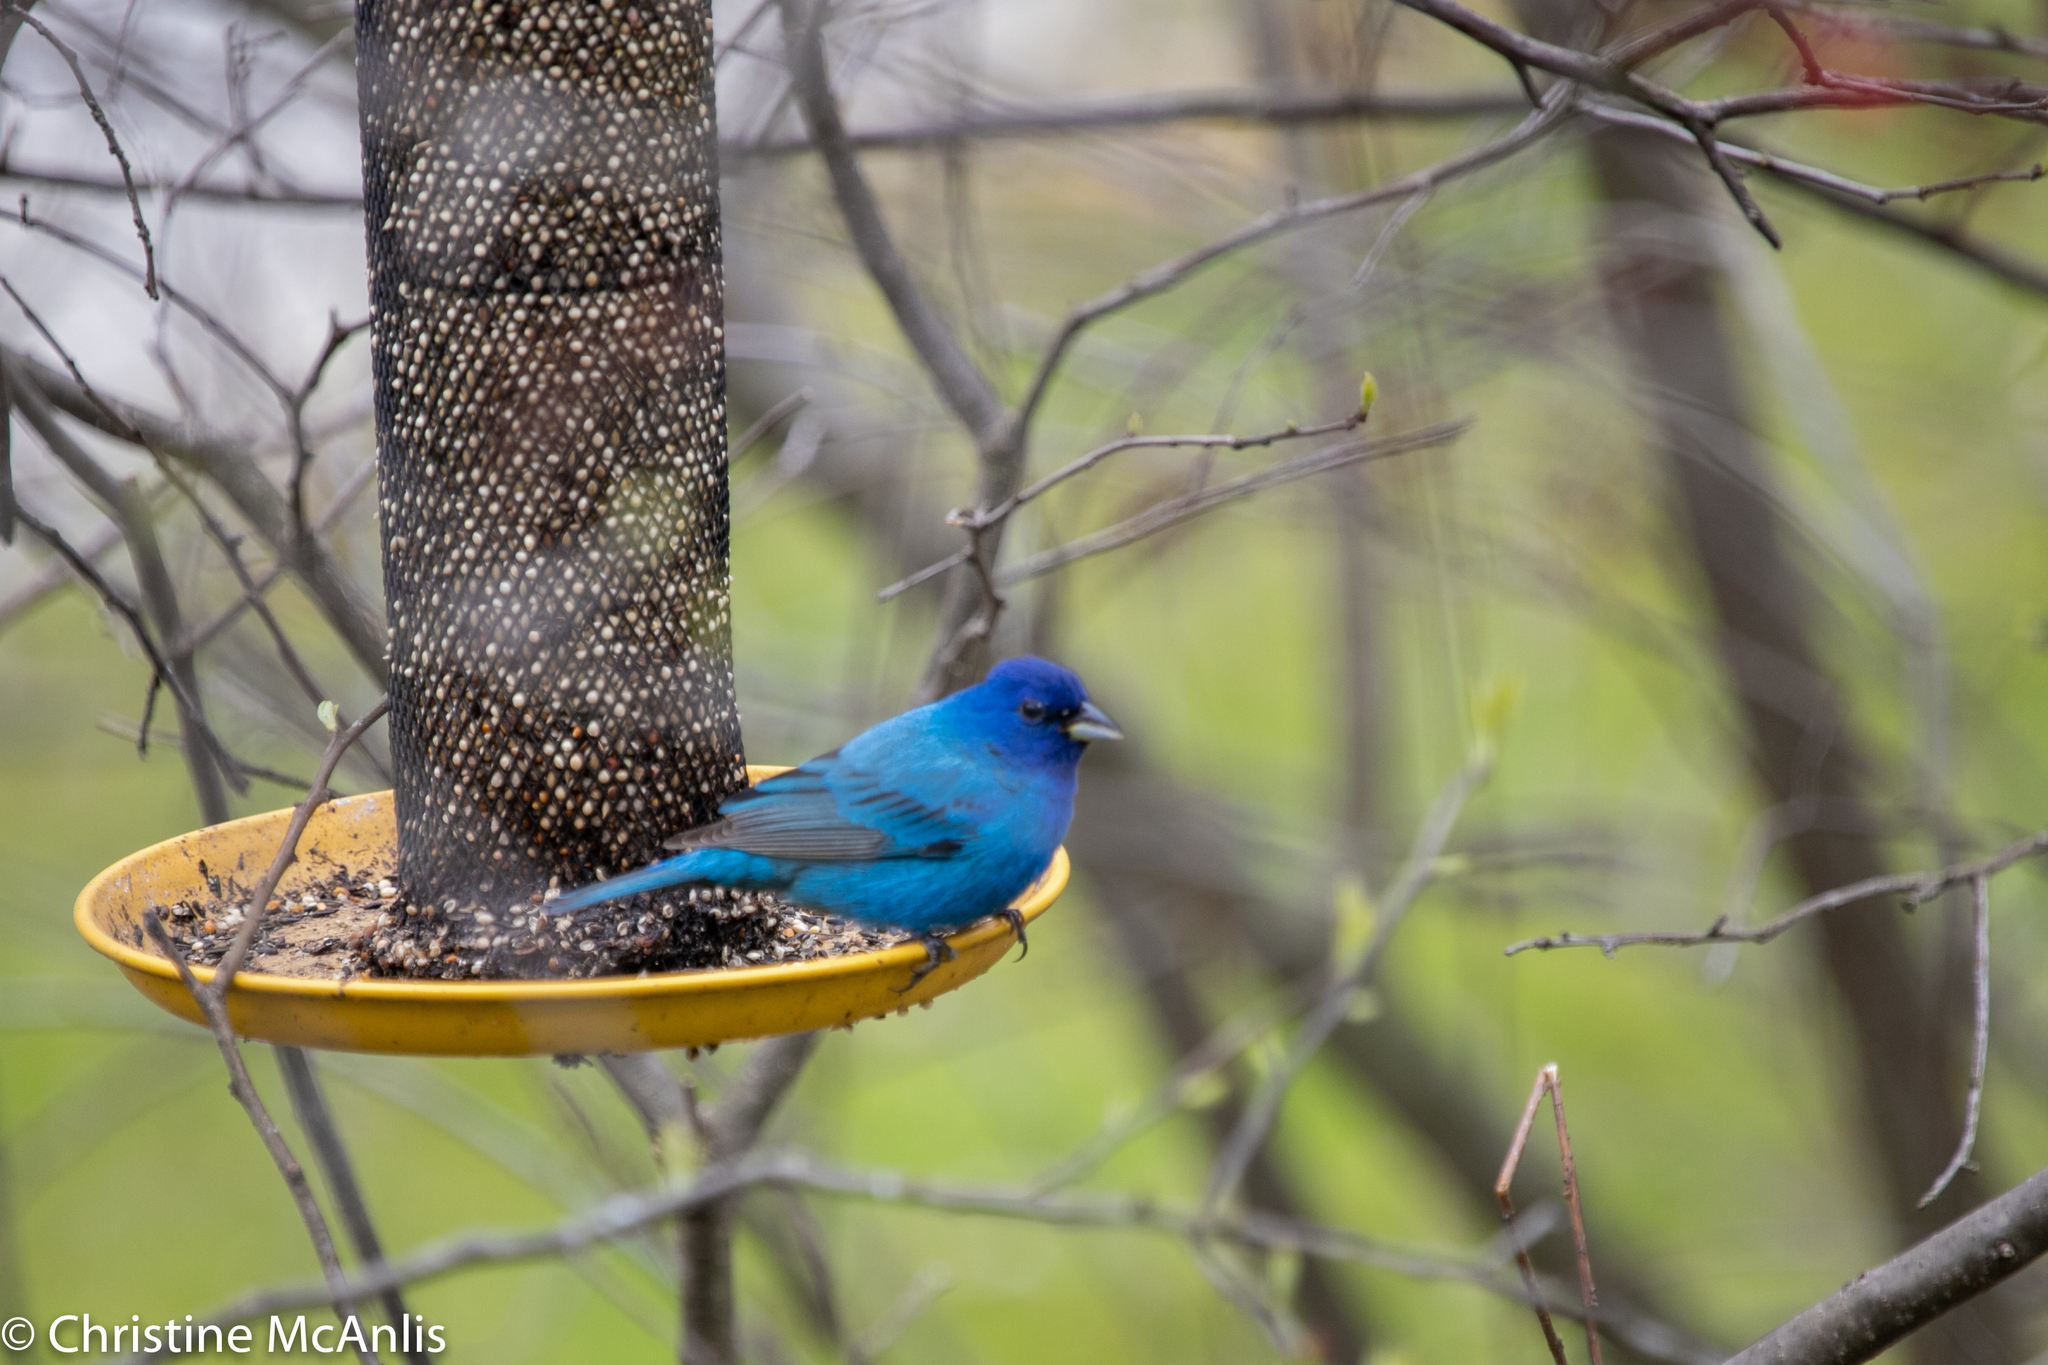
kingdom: Animalia
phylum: Chordata
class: Aves
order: Passeriformes
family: Cardinalidae
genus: Passerina
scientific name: Passerina cyanea
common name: Indigo bunting
